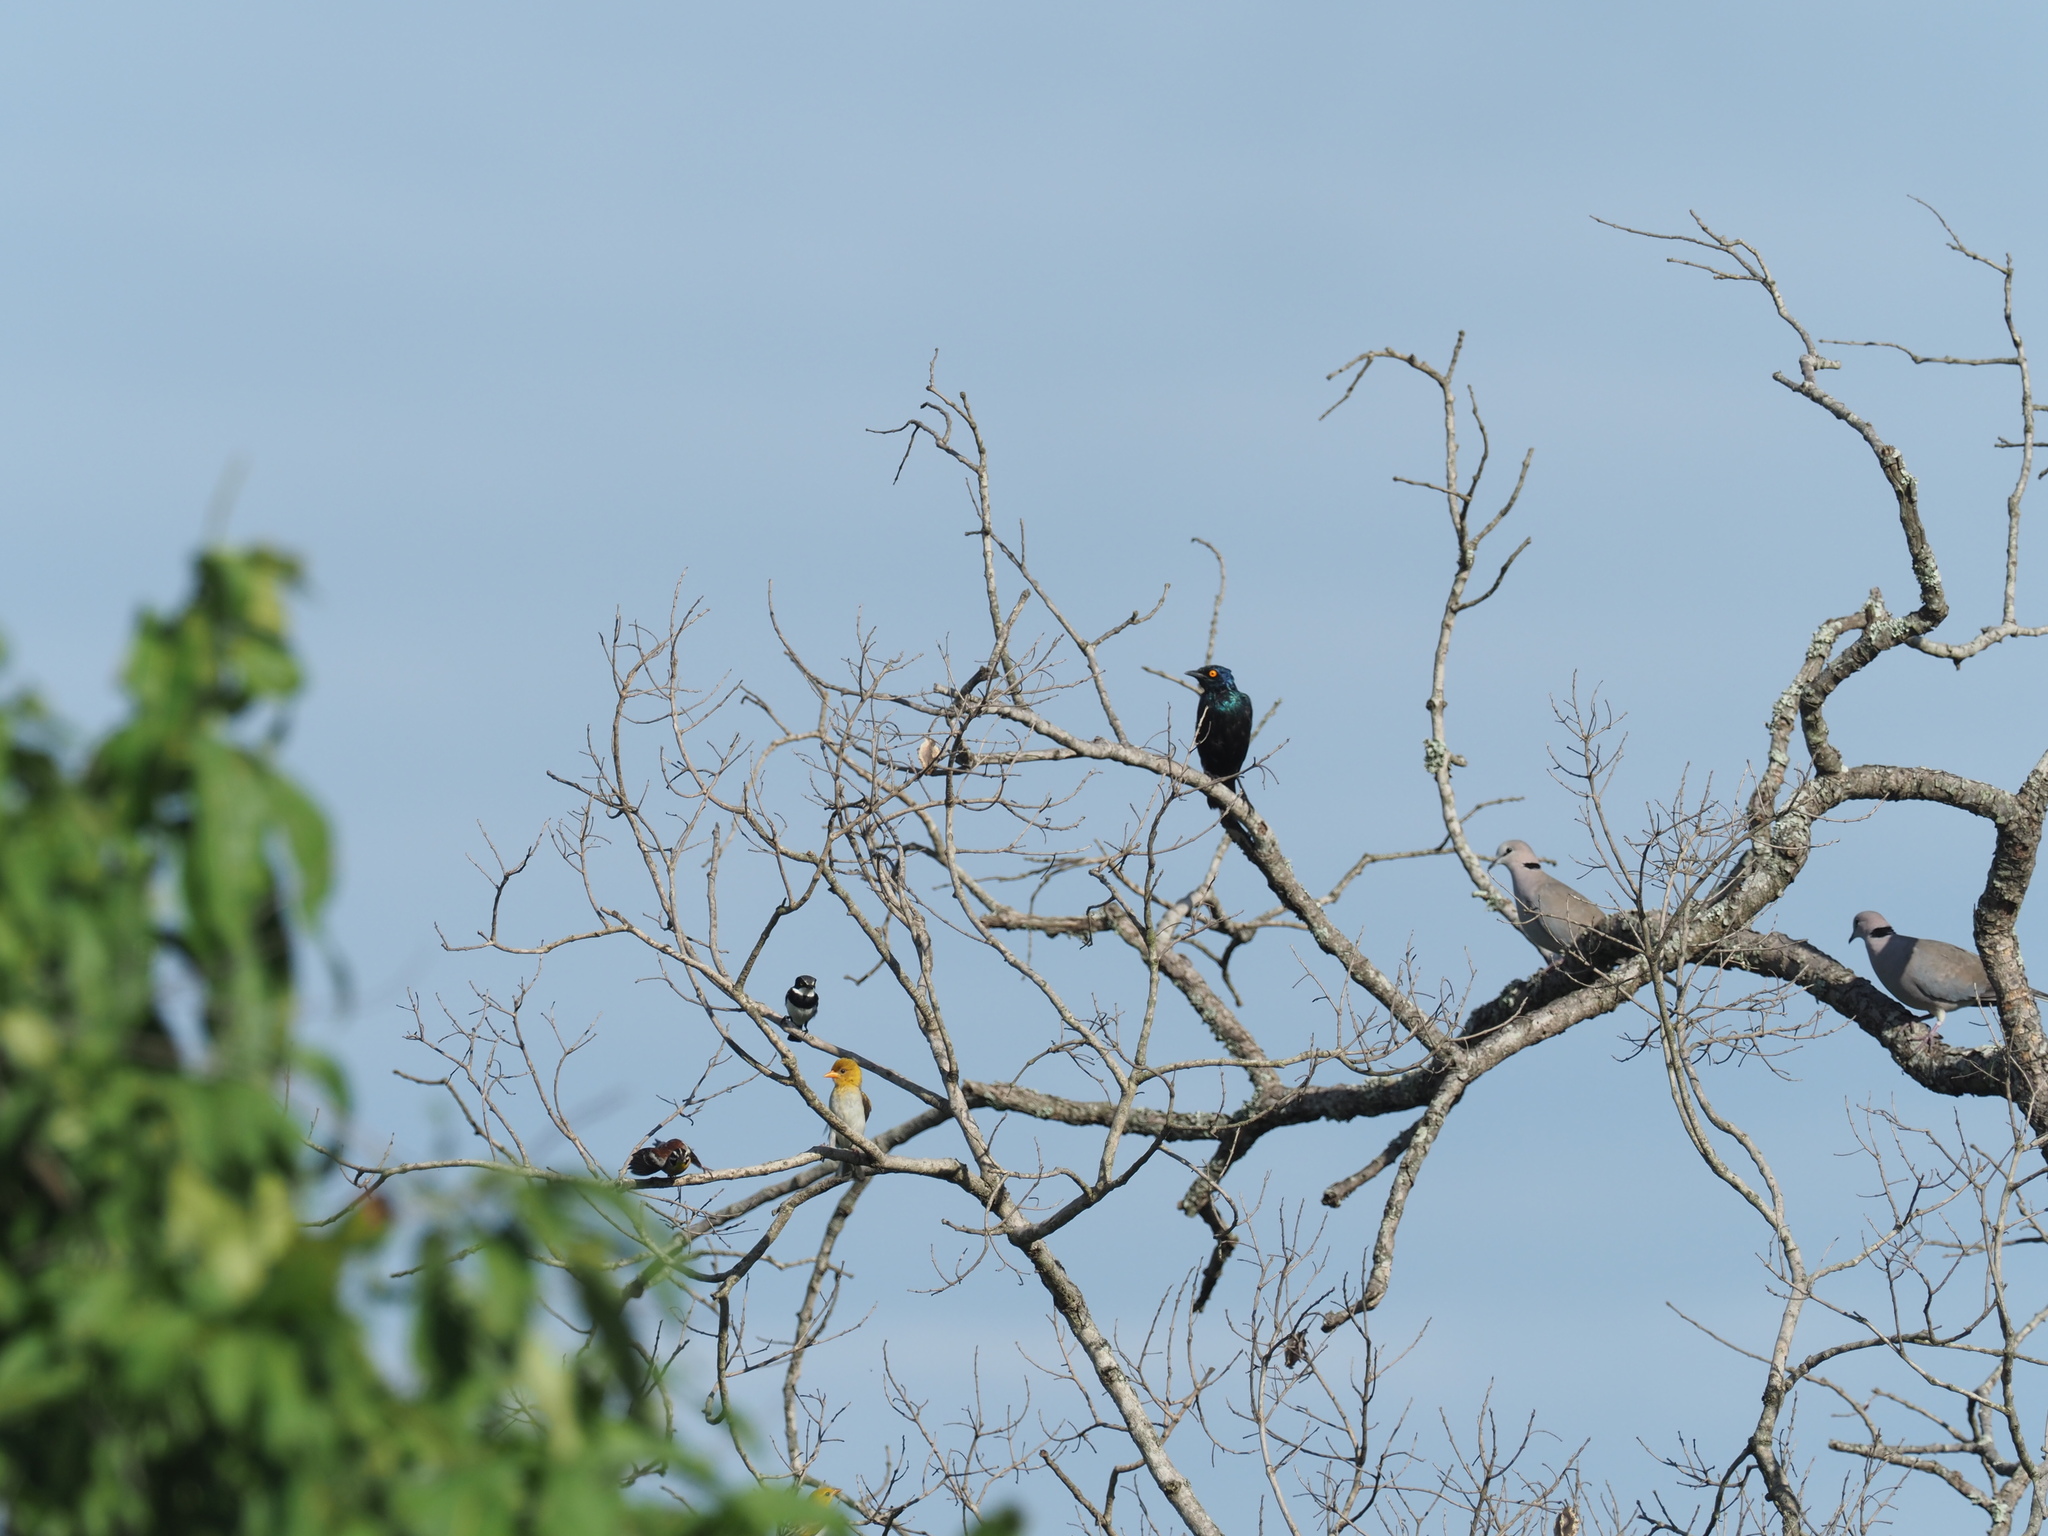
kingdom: Animalia
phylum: Chordata
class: Aves
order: Passeriformes
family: Emberizidae
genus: Emberiza
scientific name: Emberiza flaviventris
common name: Golden-breasted bunting
